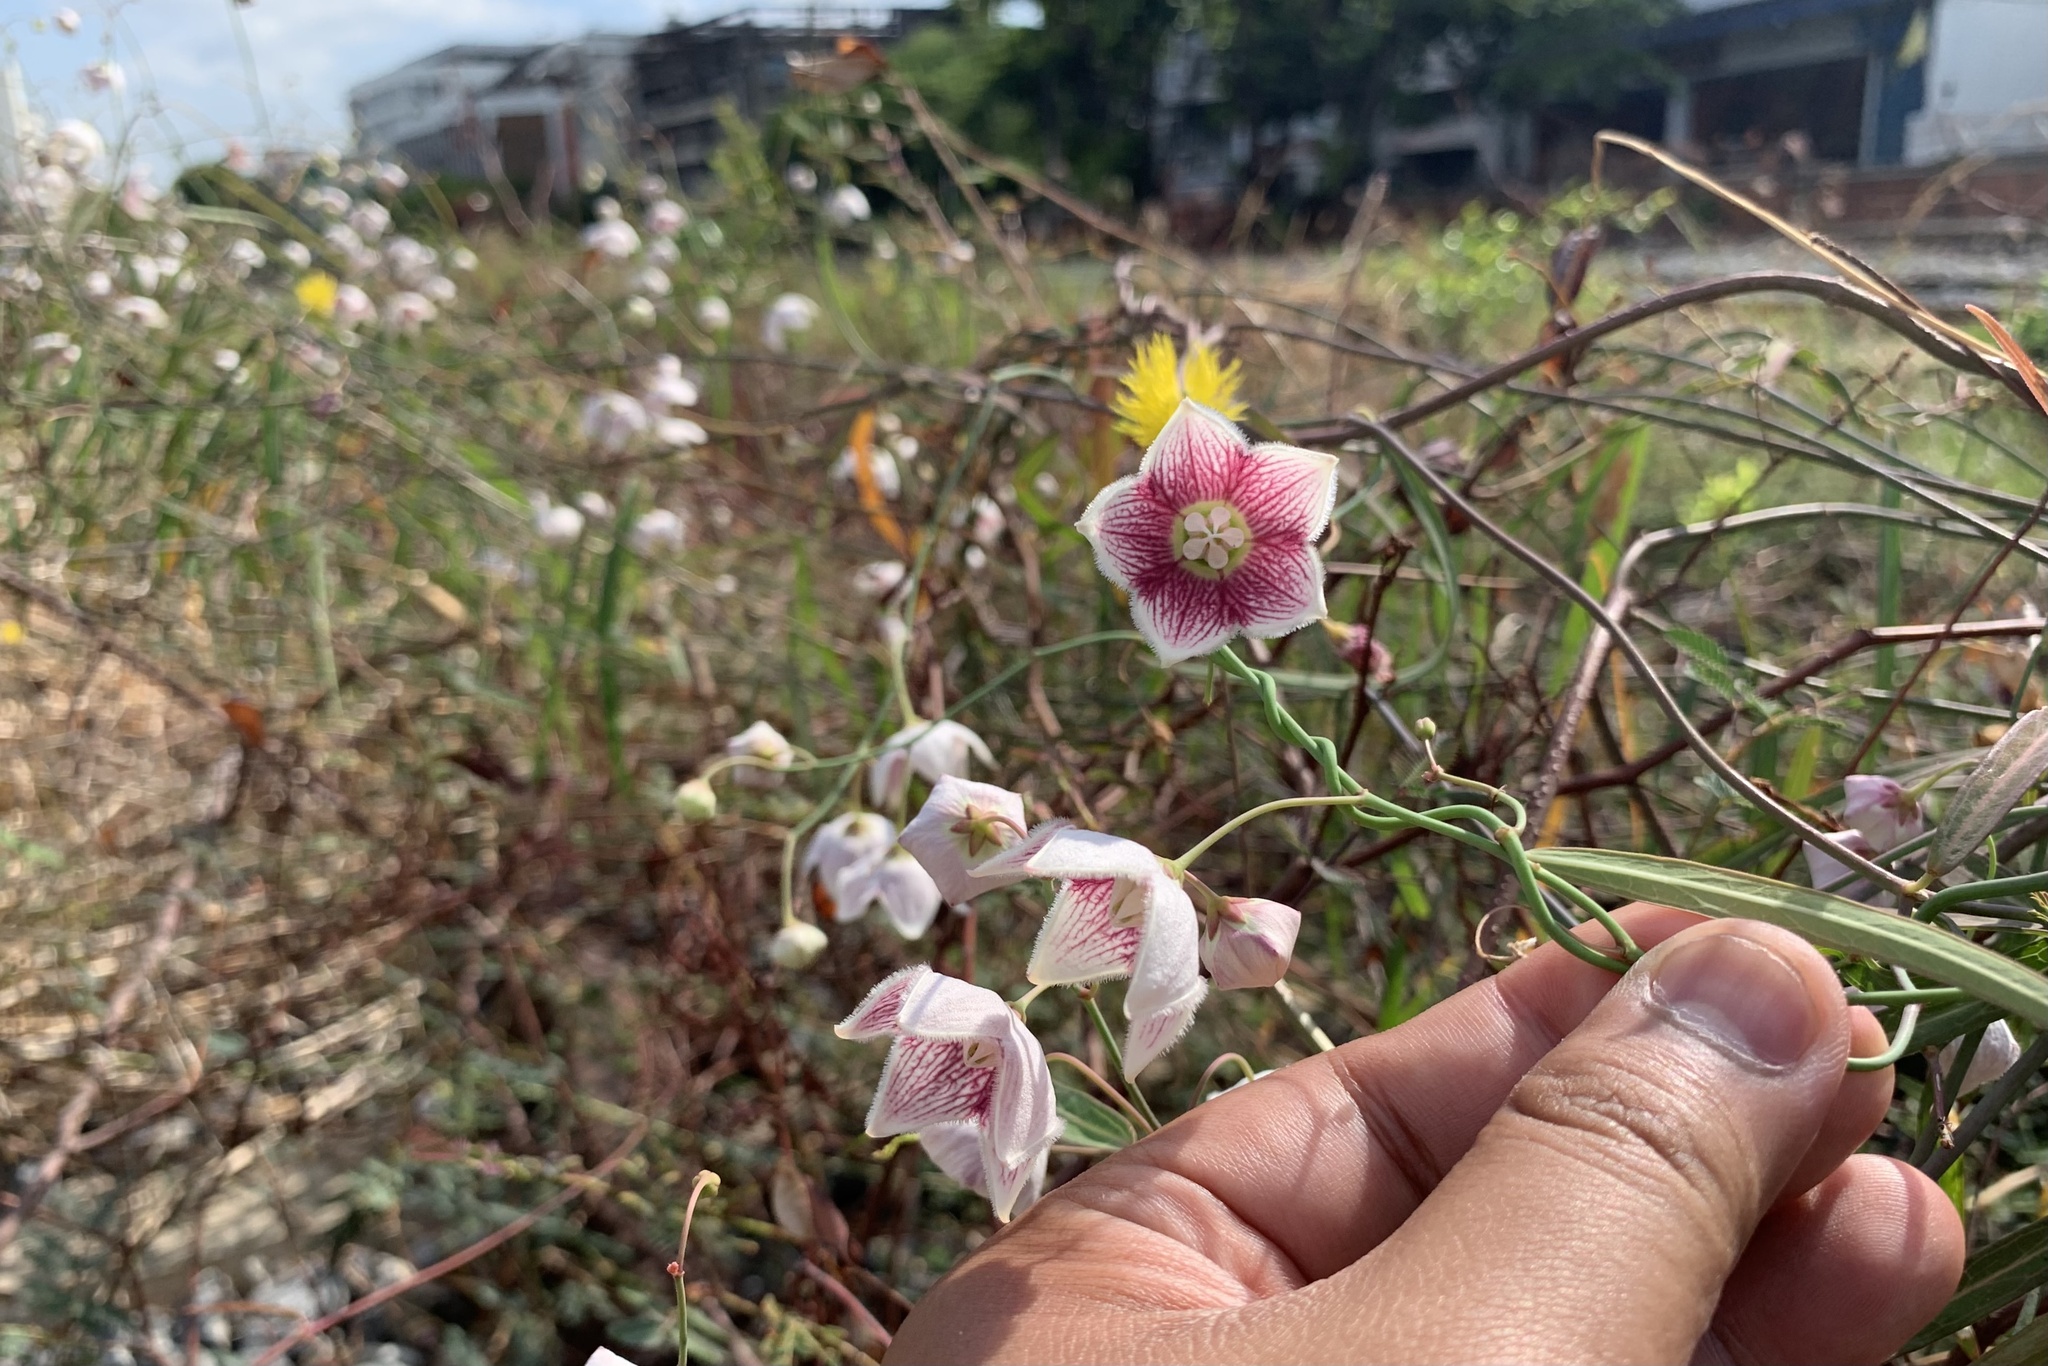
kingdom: Plantae
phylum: Tracheophyta
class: Magnoliopsida
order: Gentianales
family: Apocynaceae
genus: Oxystelma
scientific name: Oxystelma wallichii
